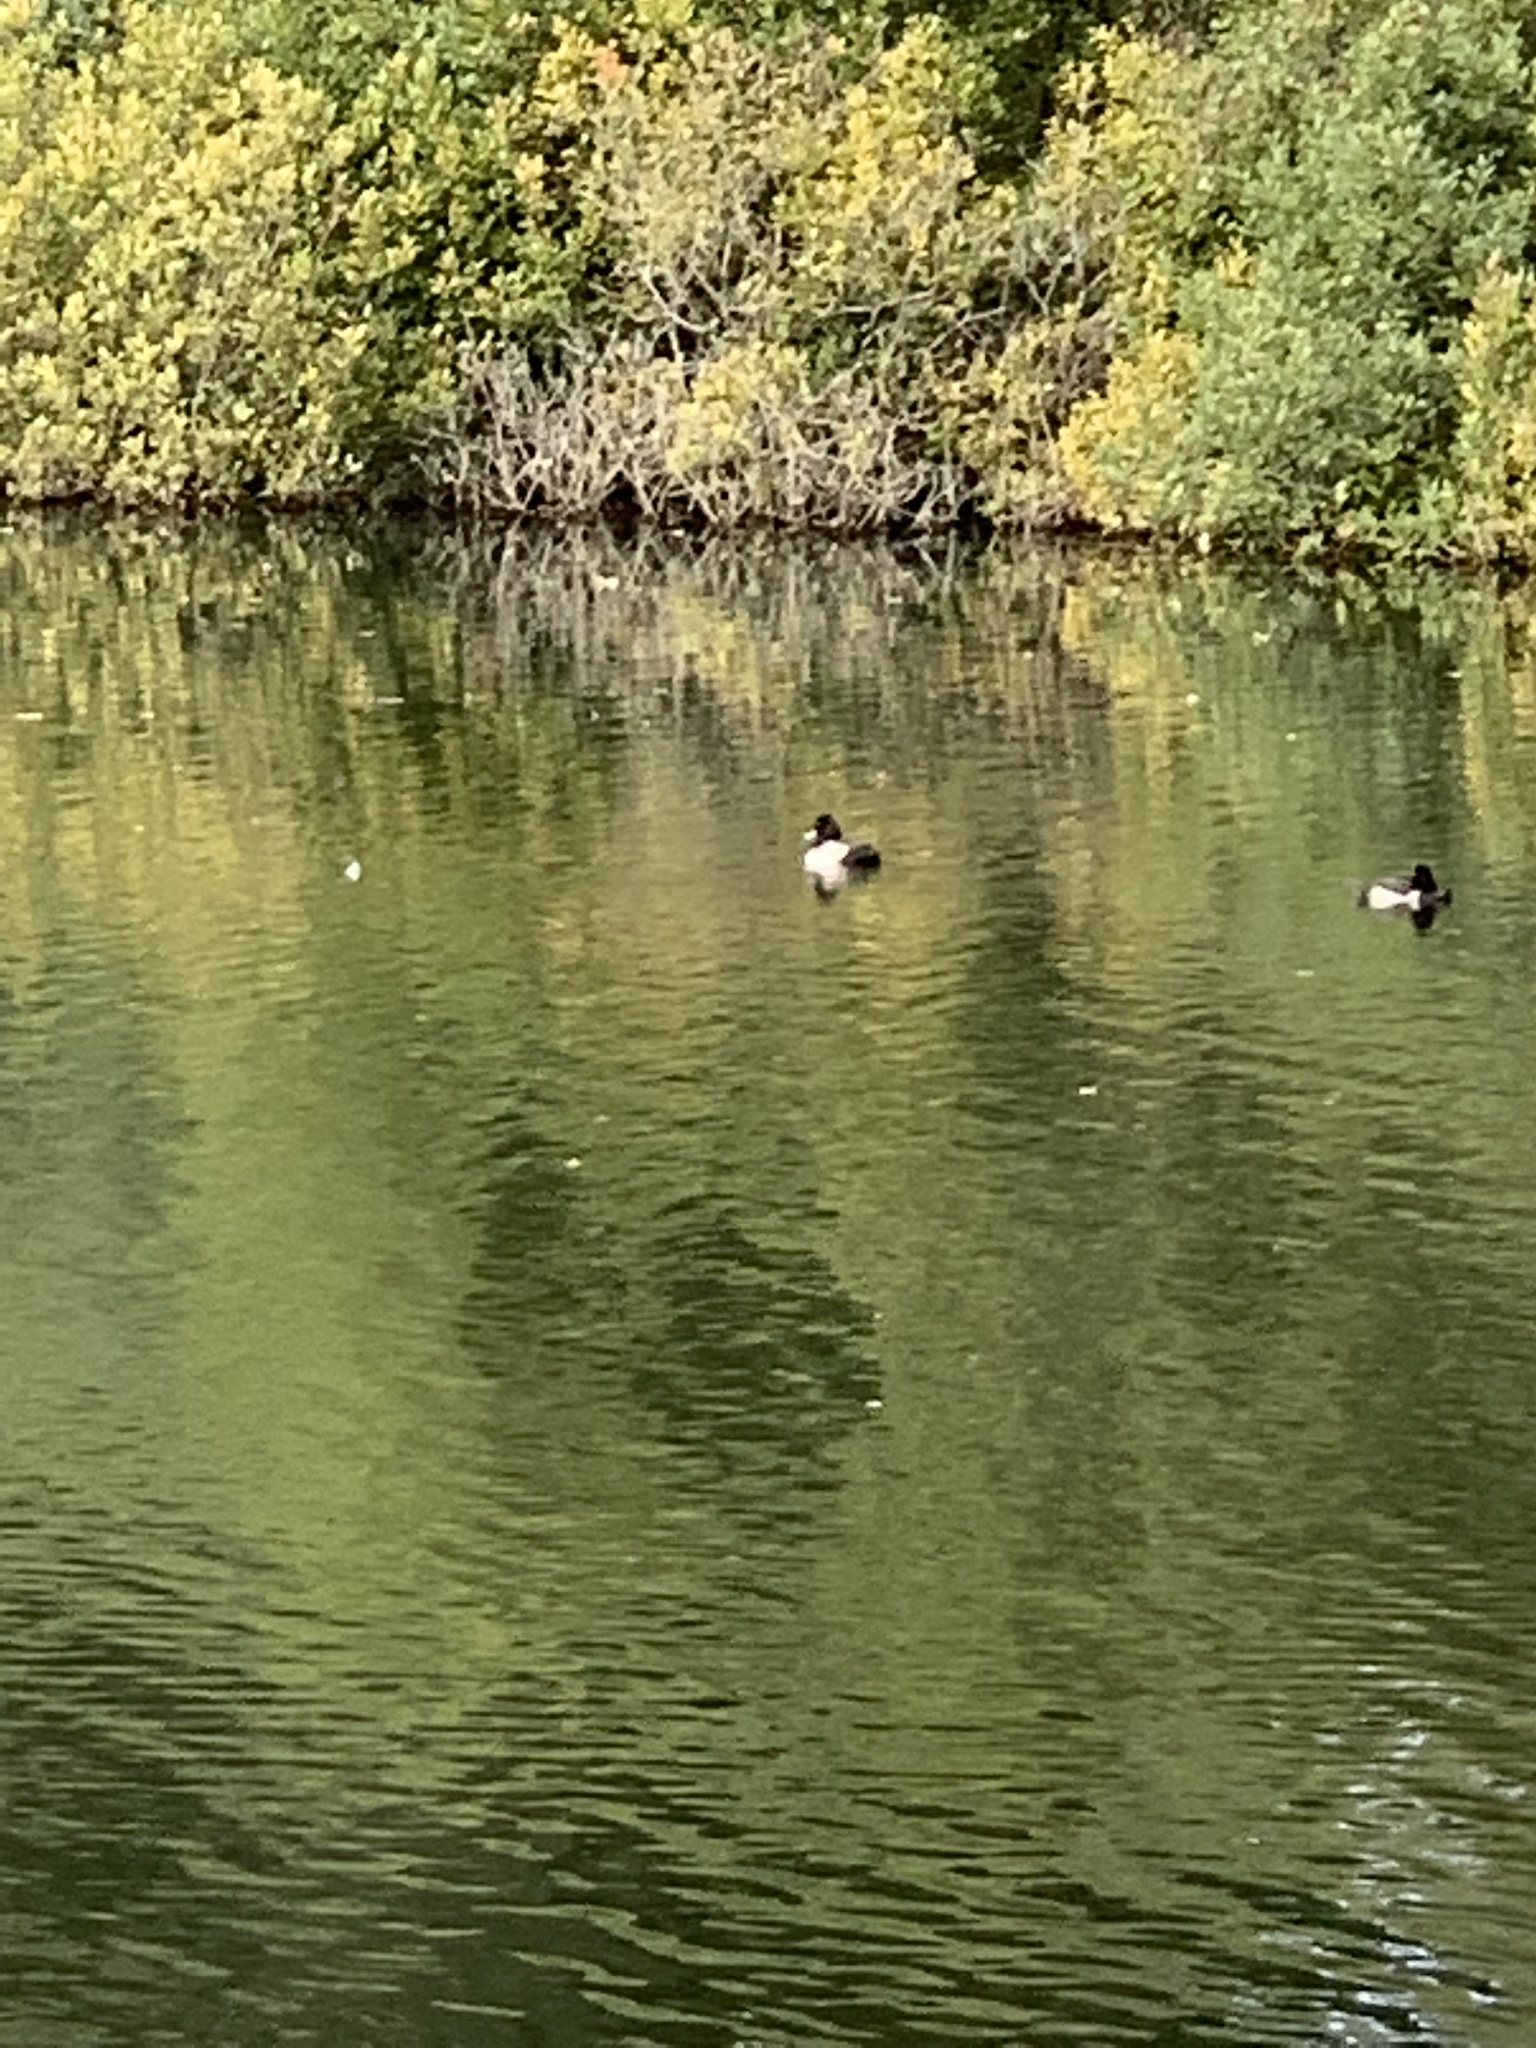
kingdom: Animalia
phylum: Chordata
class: Aves
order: Anseriformes
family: Anatidae
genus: Aythya
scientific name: Aythya fuligula
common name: Tufted duck
